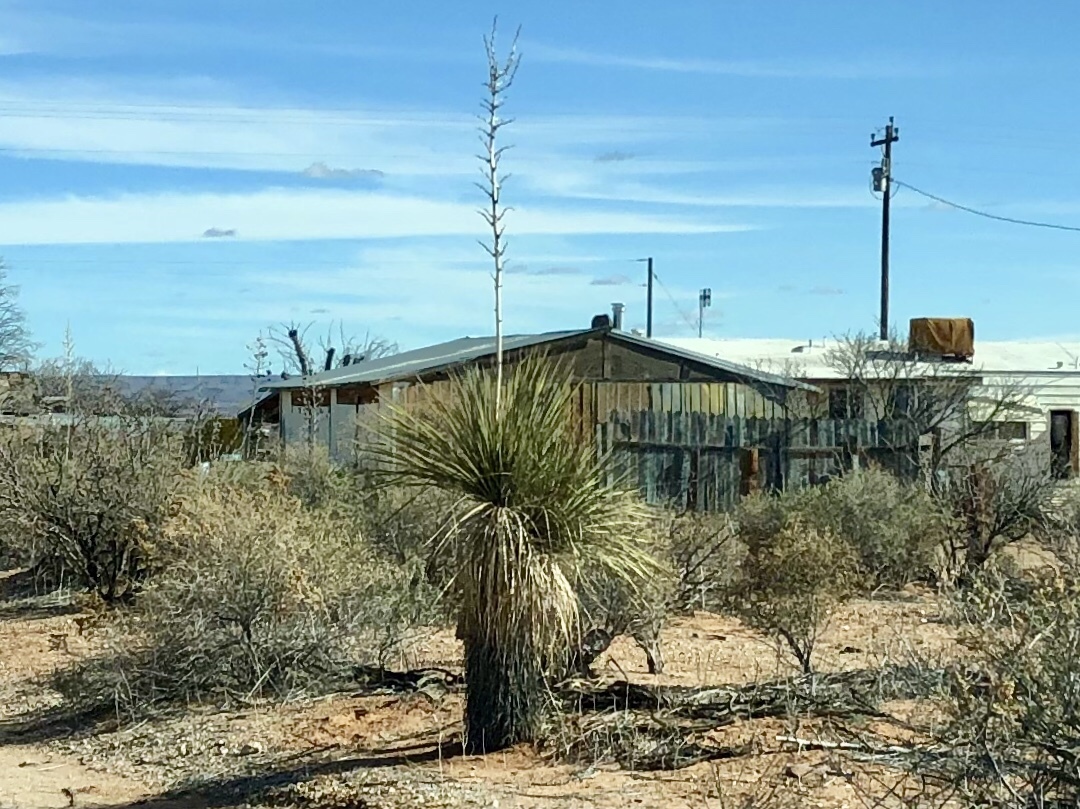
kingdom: Plantae
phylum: Tracheophyta
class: Liliopsida
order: Asparagales
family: Asparagaceae
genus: Yucca
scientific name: Yucca elata
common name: Palmella
